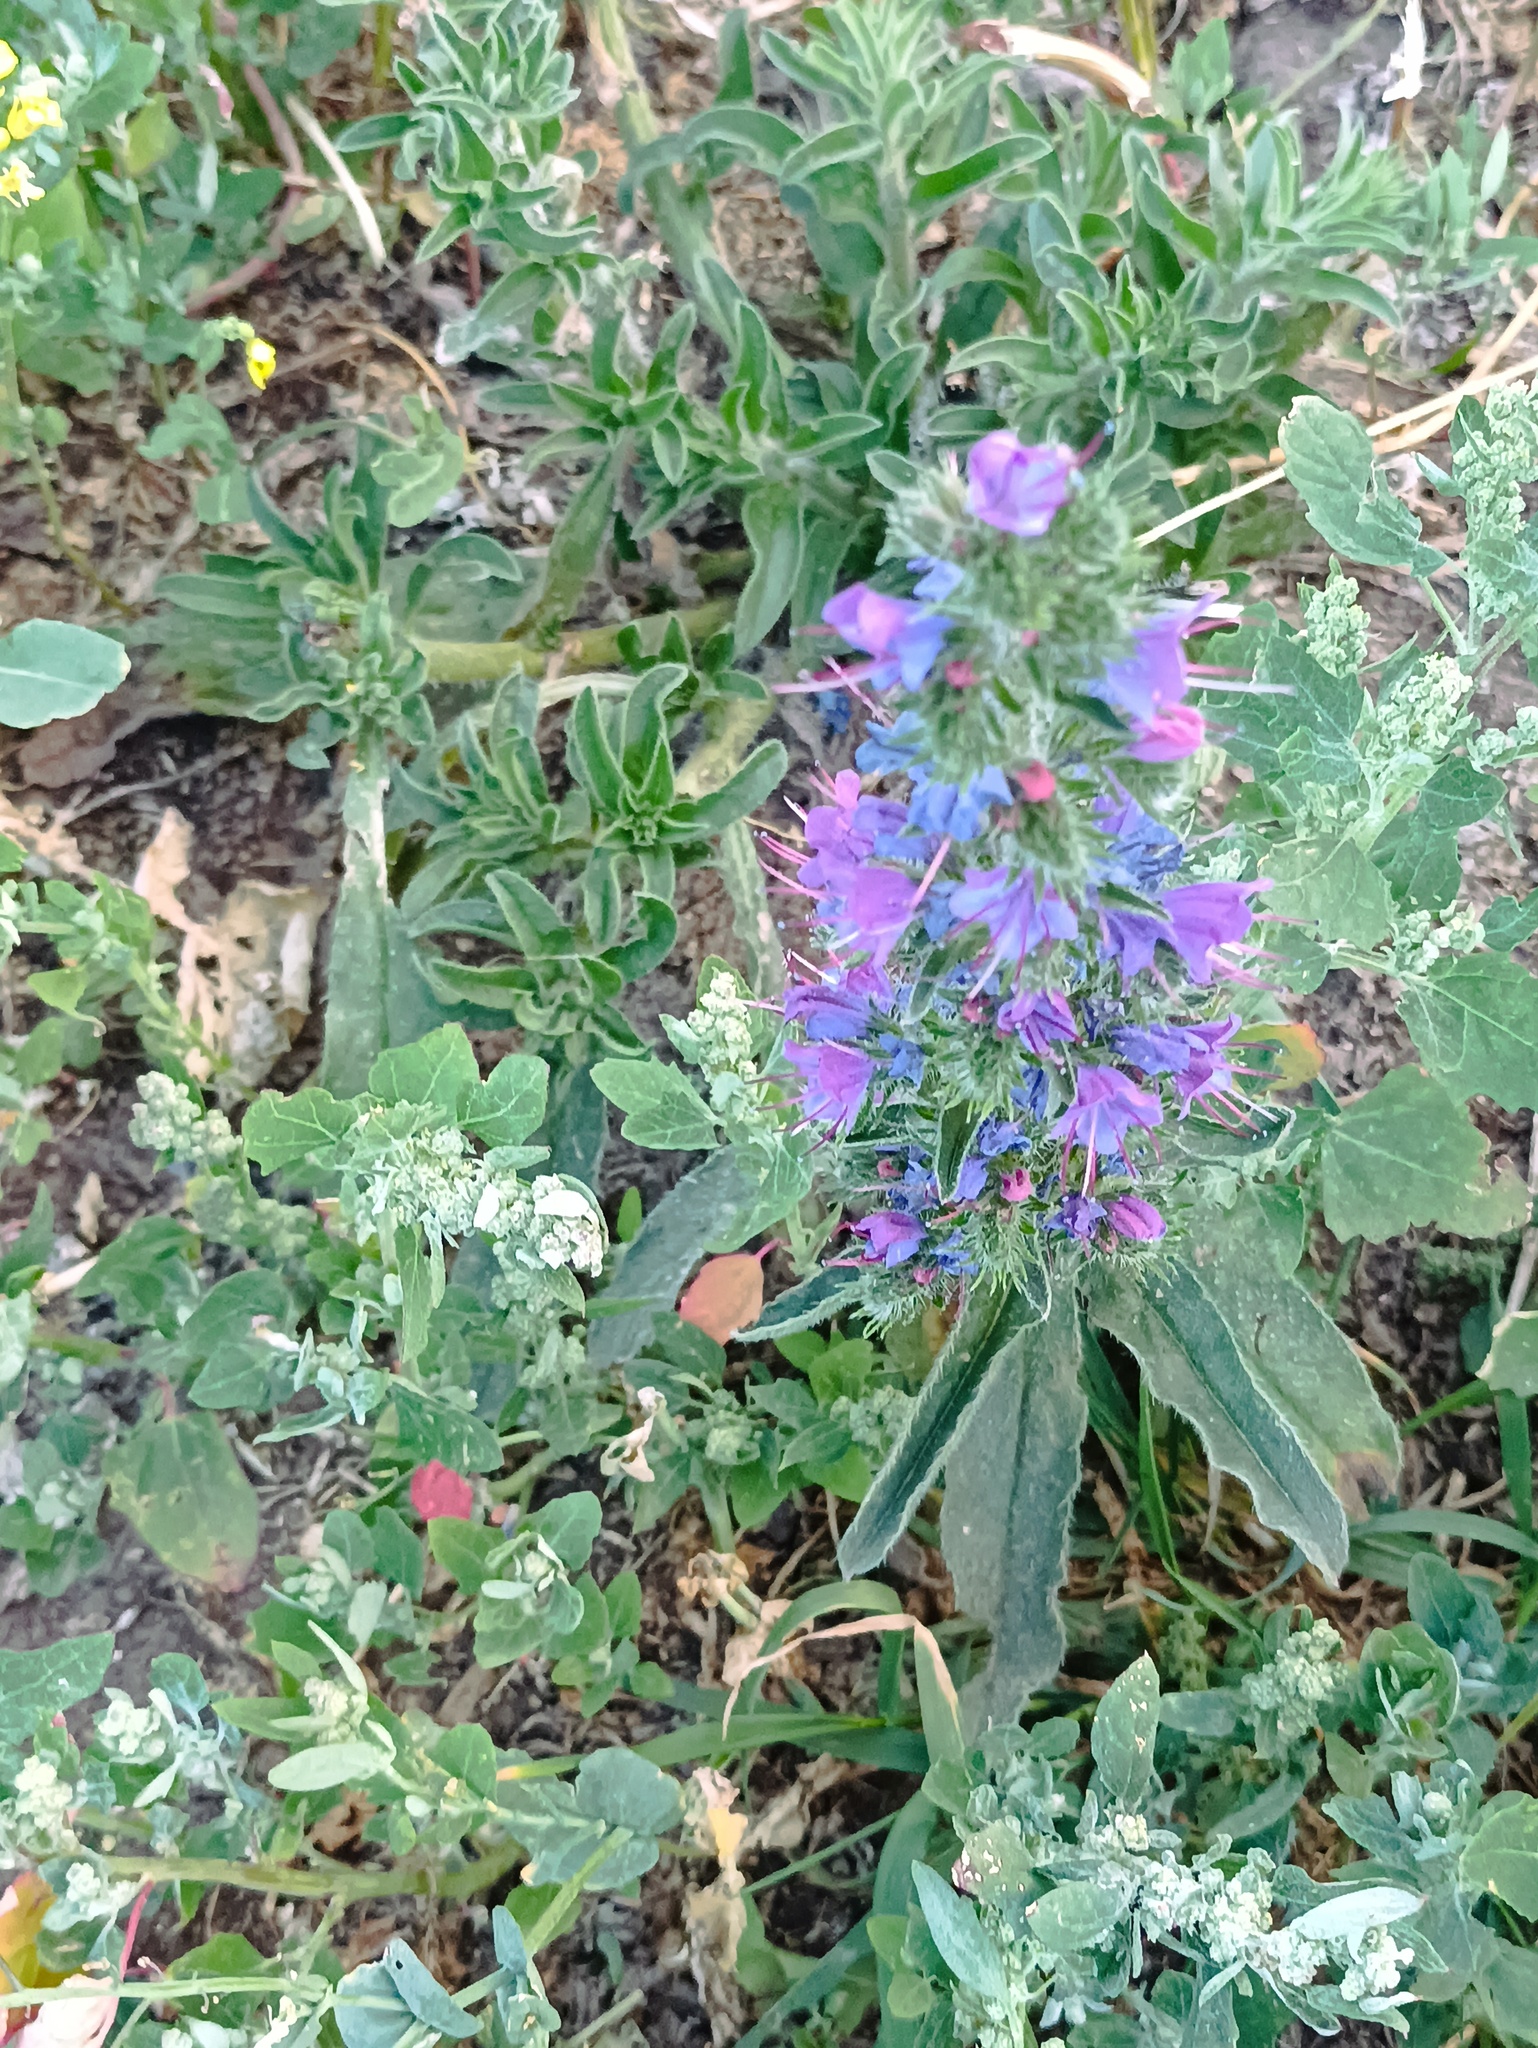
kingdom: Plantae
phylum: Tracheophyta
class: Magnoliopsida
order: Boraginales
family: Boraginaceae
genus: Echium
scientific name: Echium vulgare
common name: Common viper's bugloss
